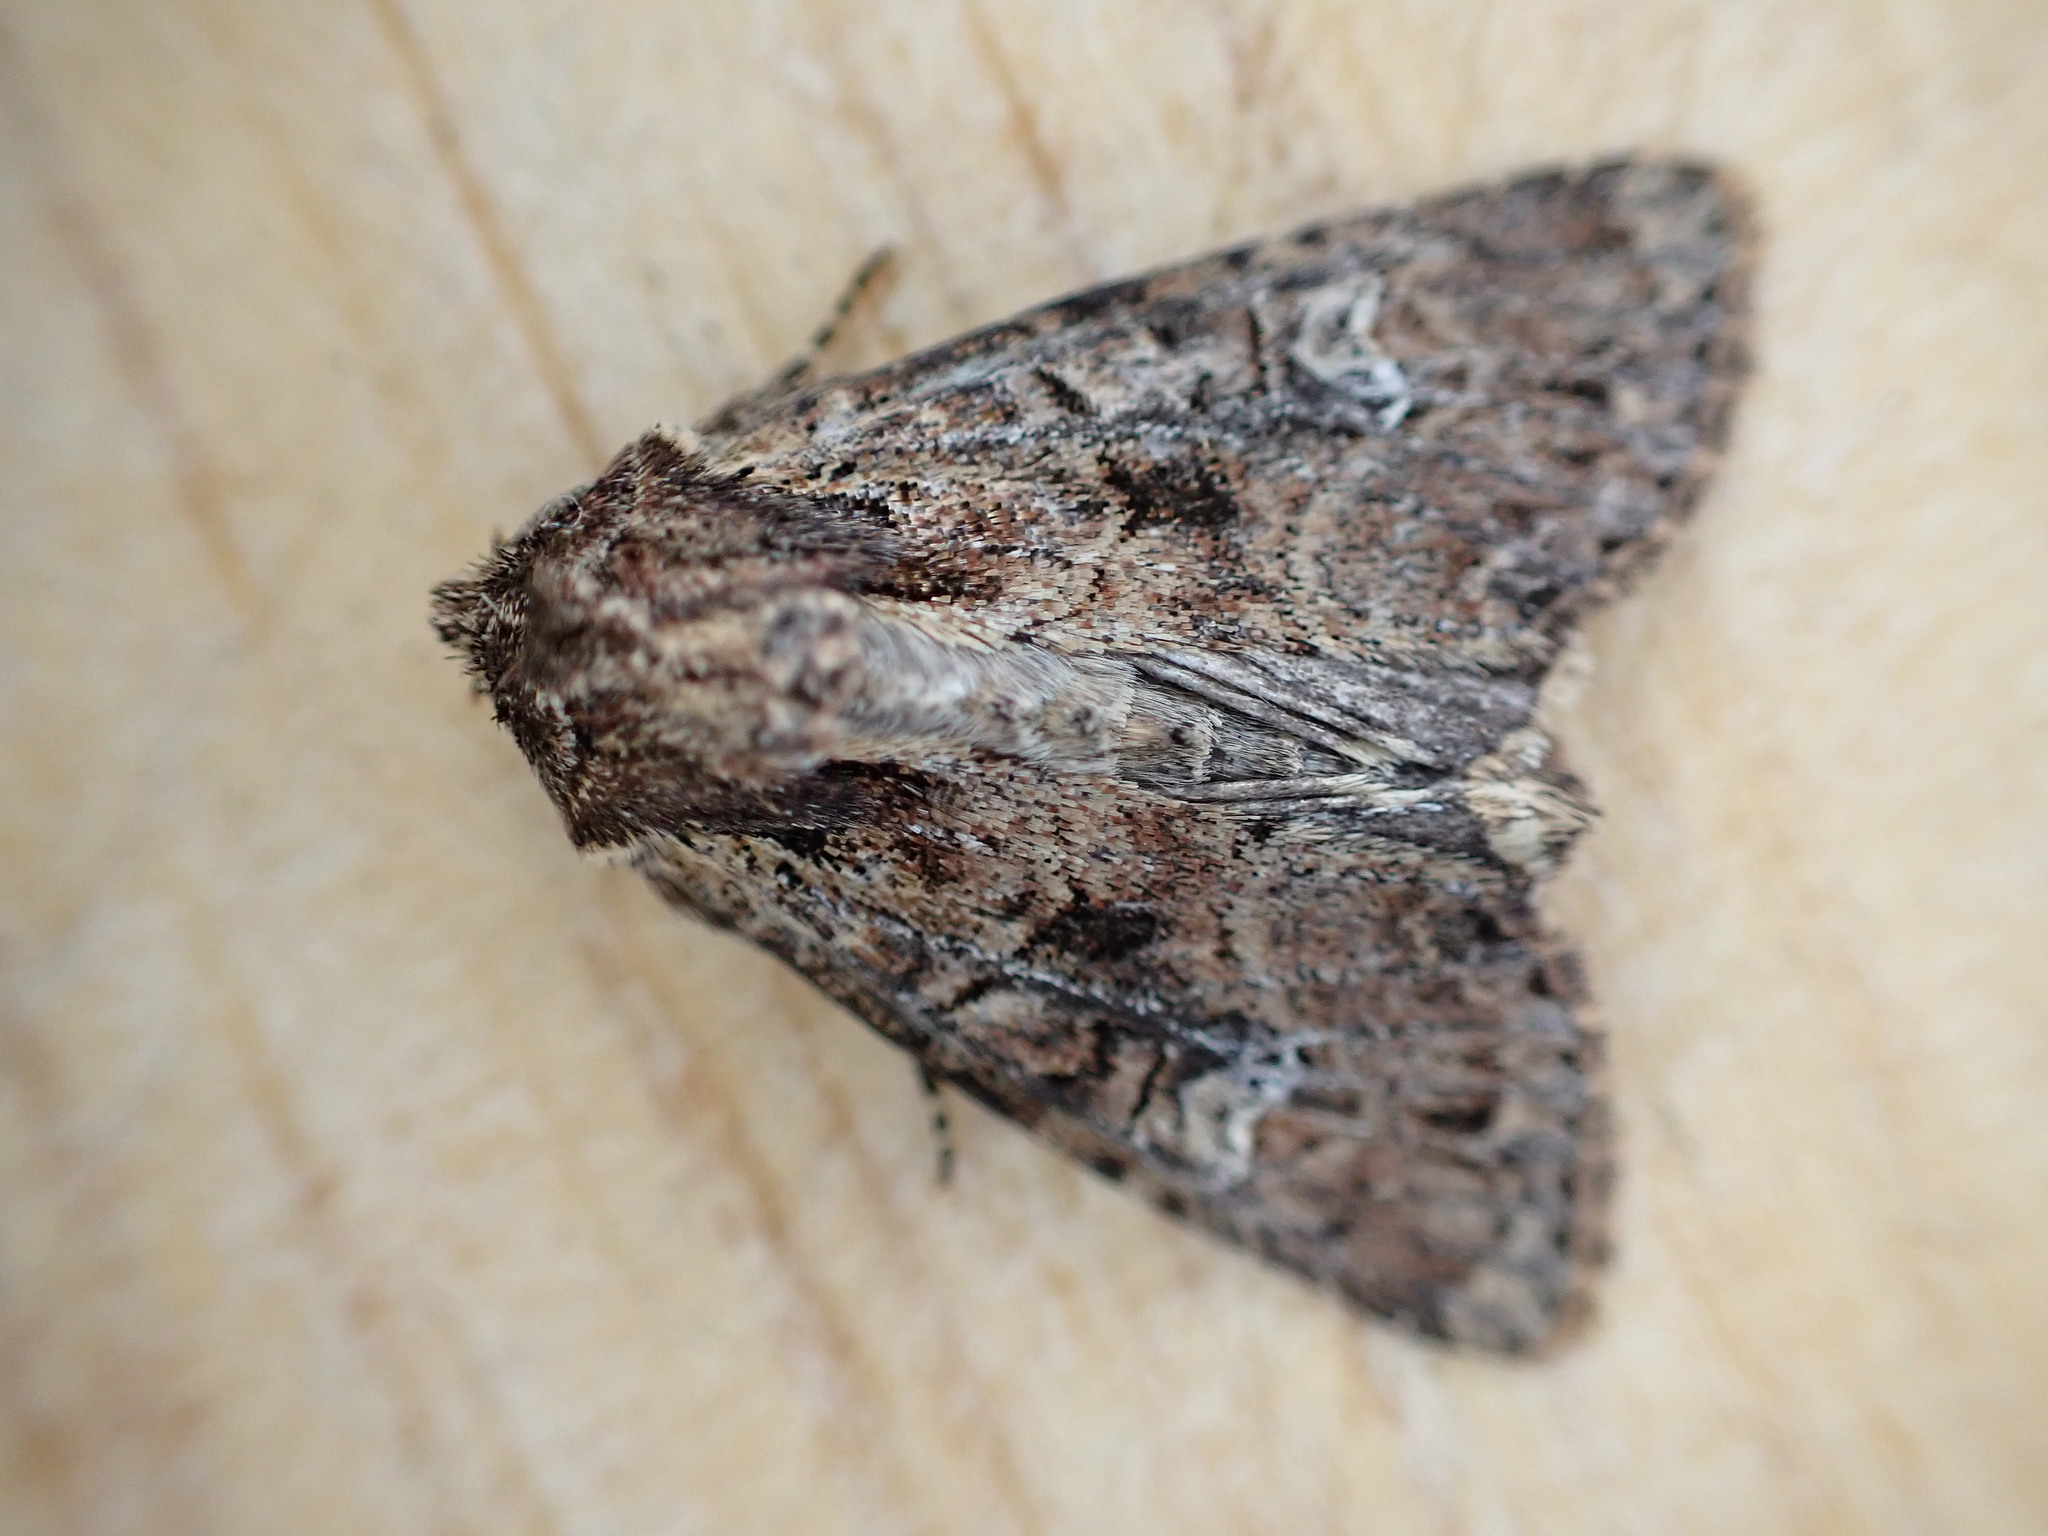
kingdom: Animalia
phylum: Arthropoda
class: Insecta
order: Lepidoptera
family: Noctuidae
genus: Apamea
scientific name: Apamea unanimis
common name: Small clouded brindle
